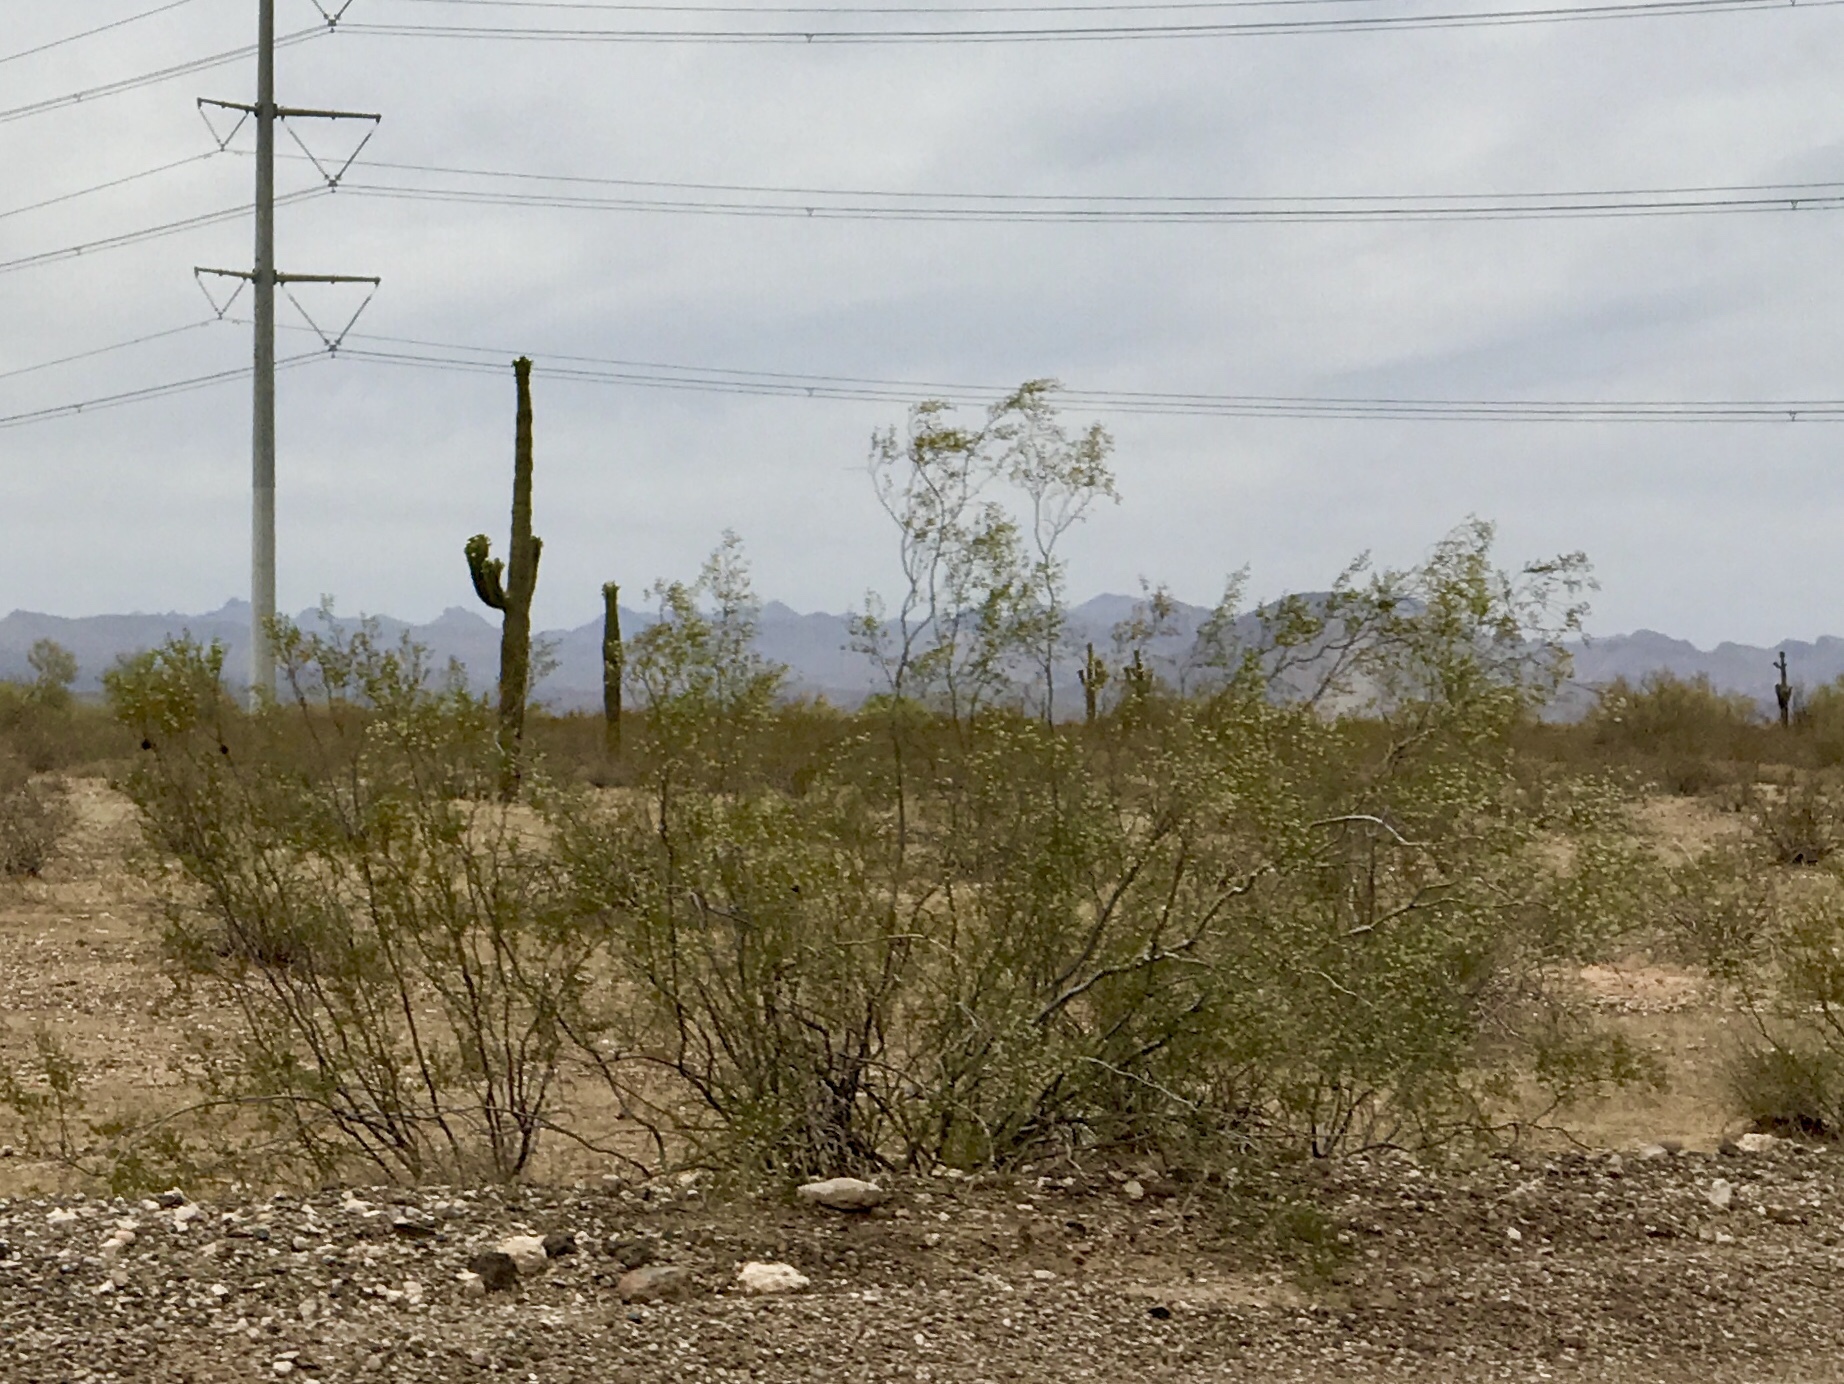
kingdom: Plantae
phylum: Tracheophyta
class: Magnoliopsida
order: Zygophyllales
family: Zygophyllaceae
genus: Larrea
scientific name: Larrea tridentata
